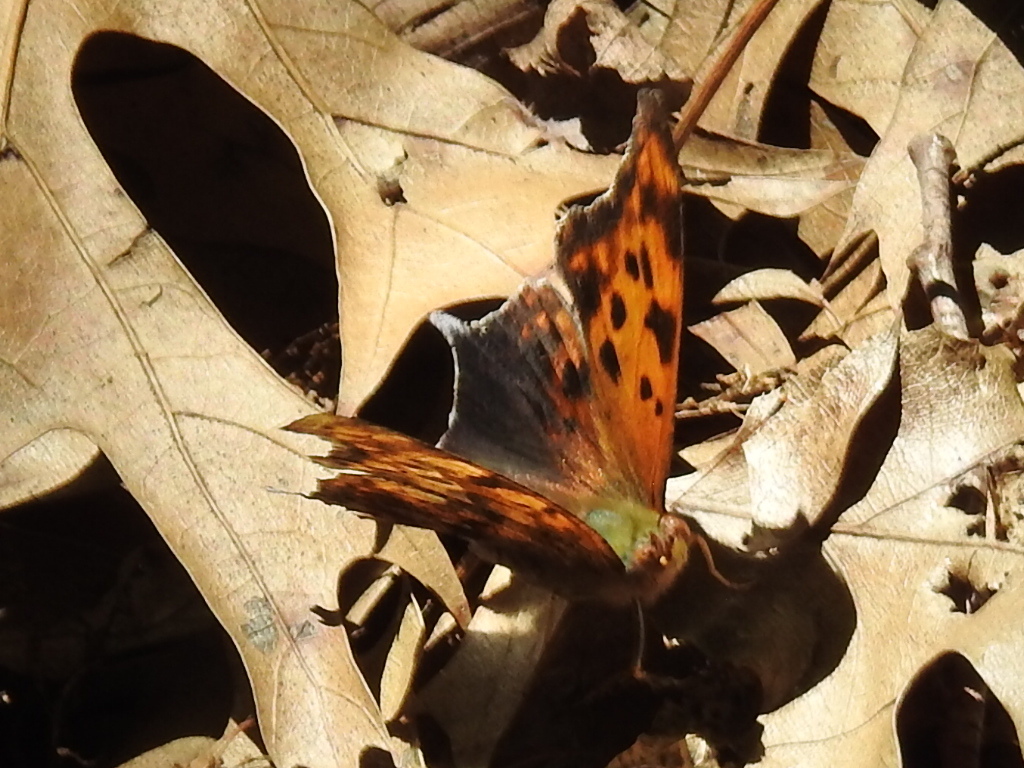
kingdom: Animalia
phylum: Arthropoda
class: Insecta
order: Lepidoptera
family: Nymphalidae
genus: Polygonia
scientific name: Polygonia interrogationis
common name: Question mark
